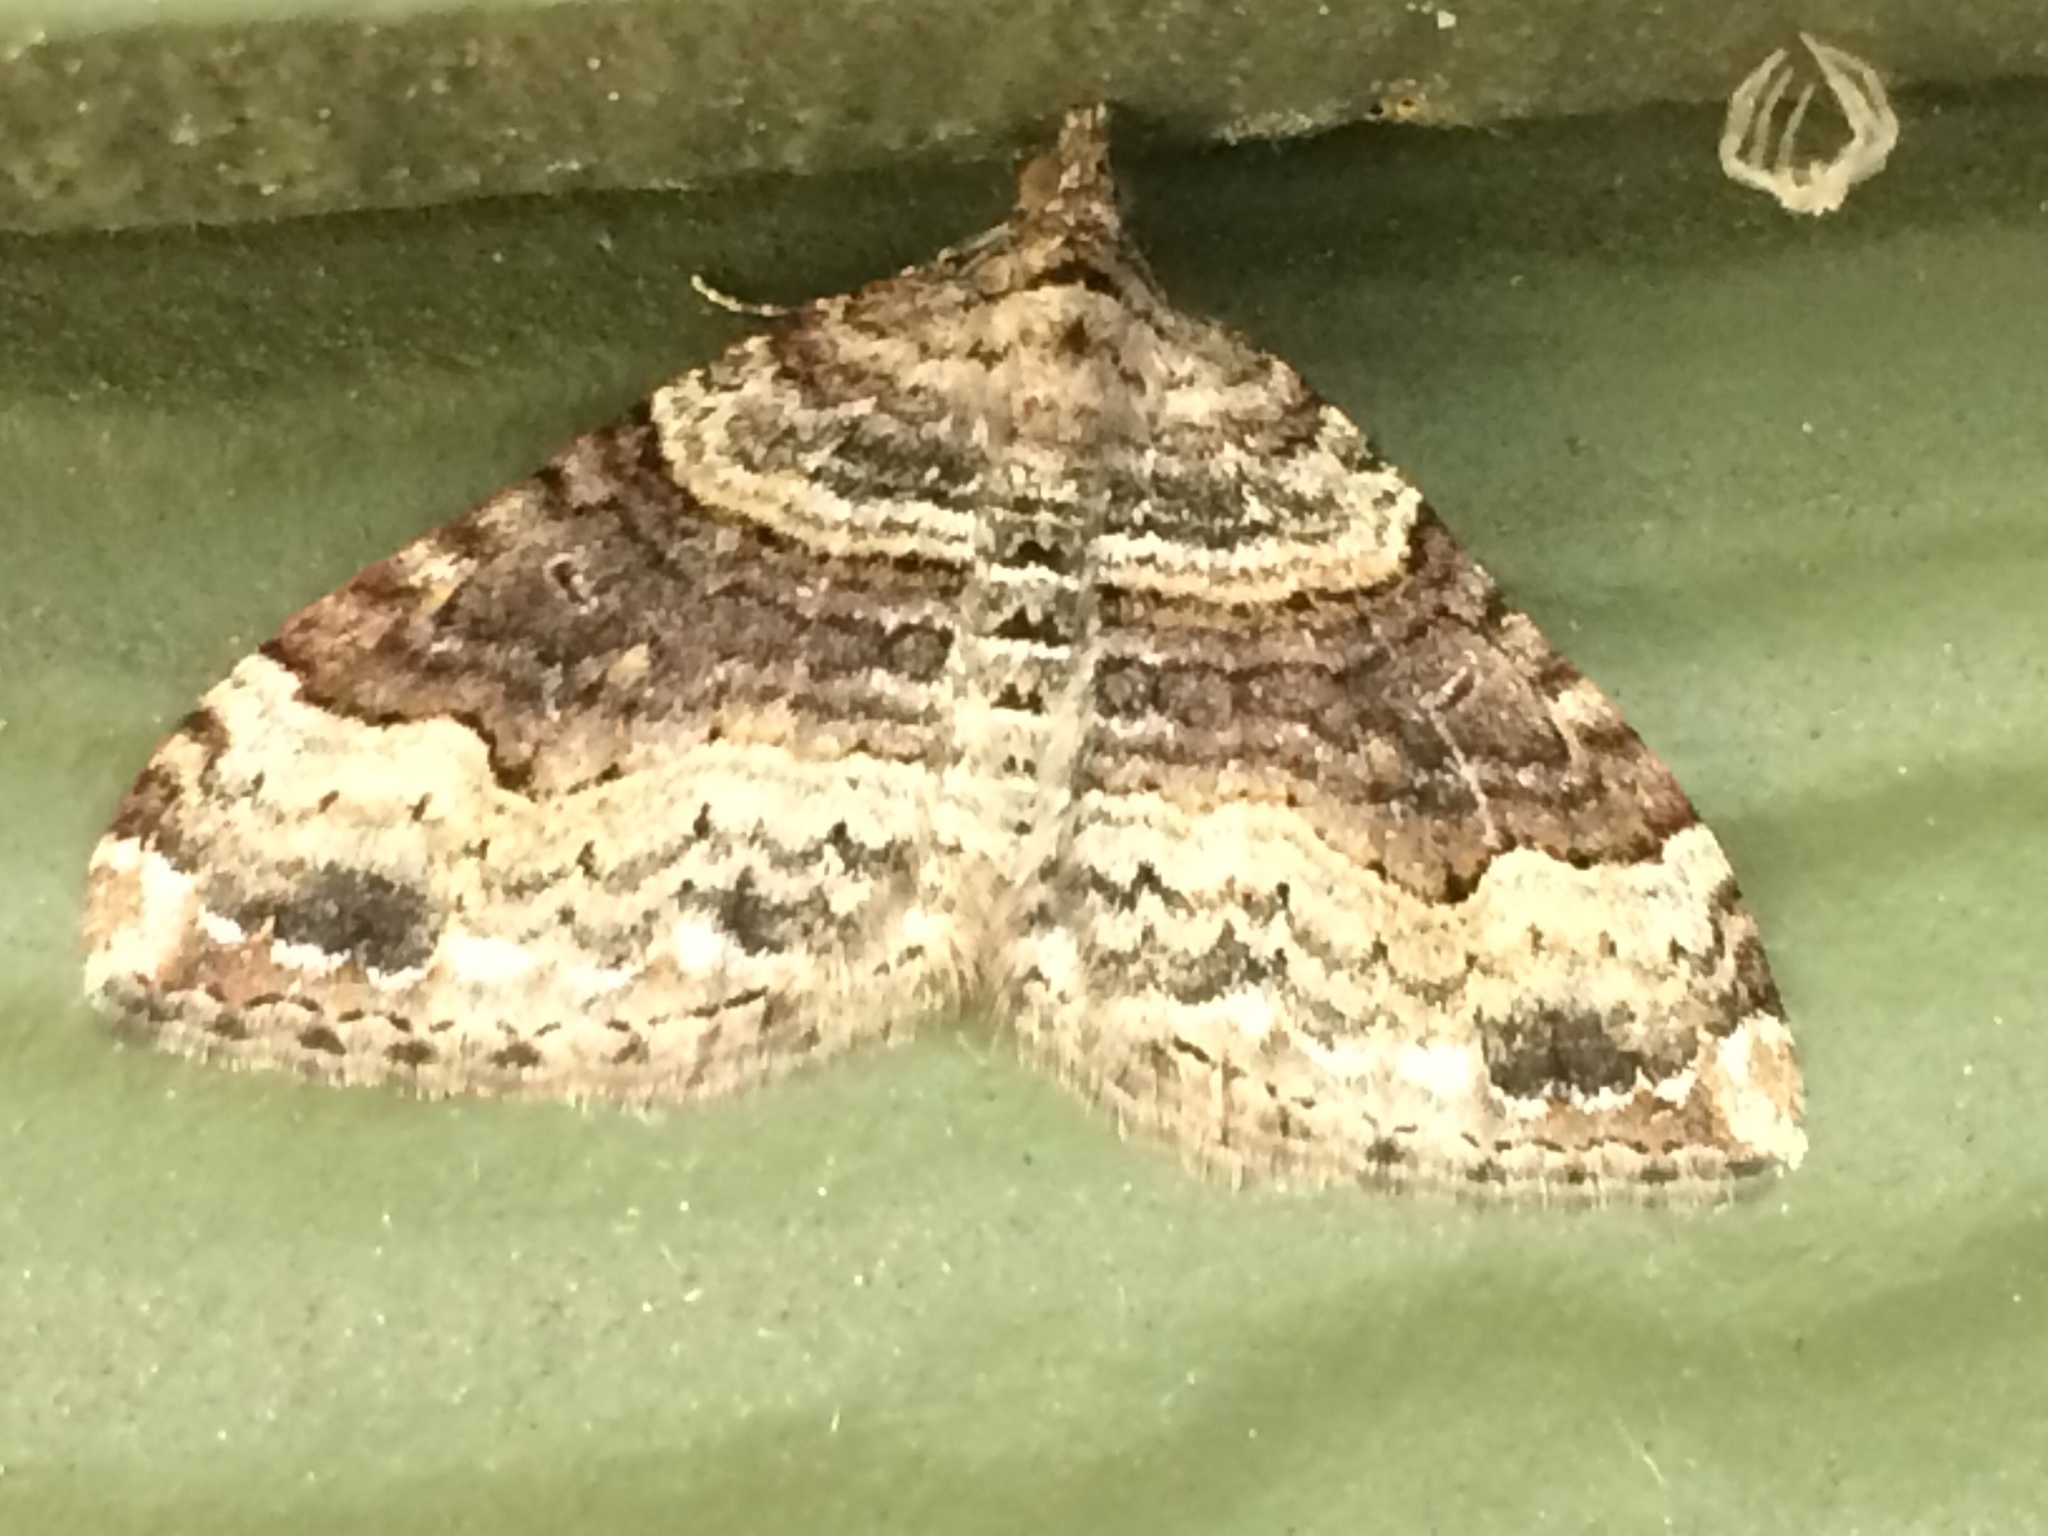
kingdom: Animalia
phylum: Arthropoda
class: Insecta
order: Lepidoptera
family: Geometridae
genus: Xanthorhoe
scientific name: Xanthorhoe defensaria
